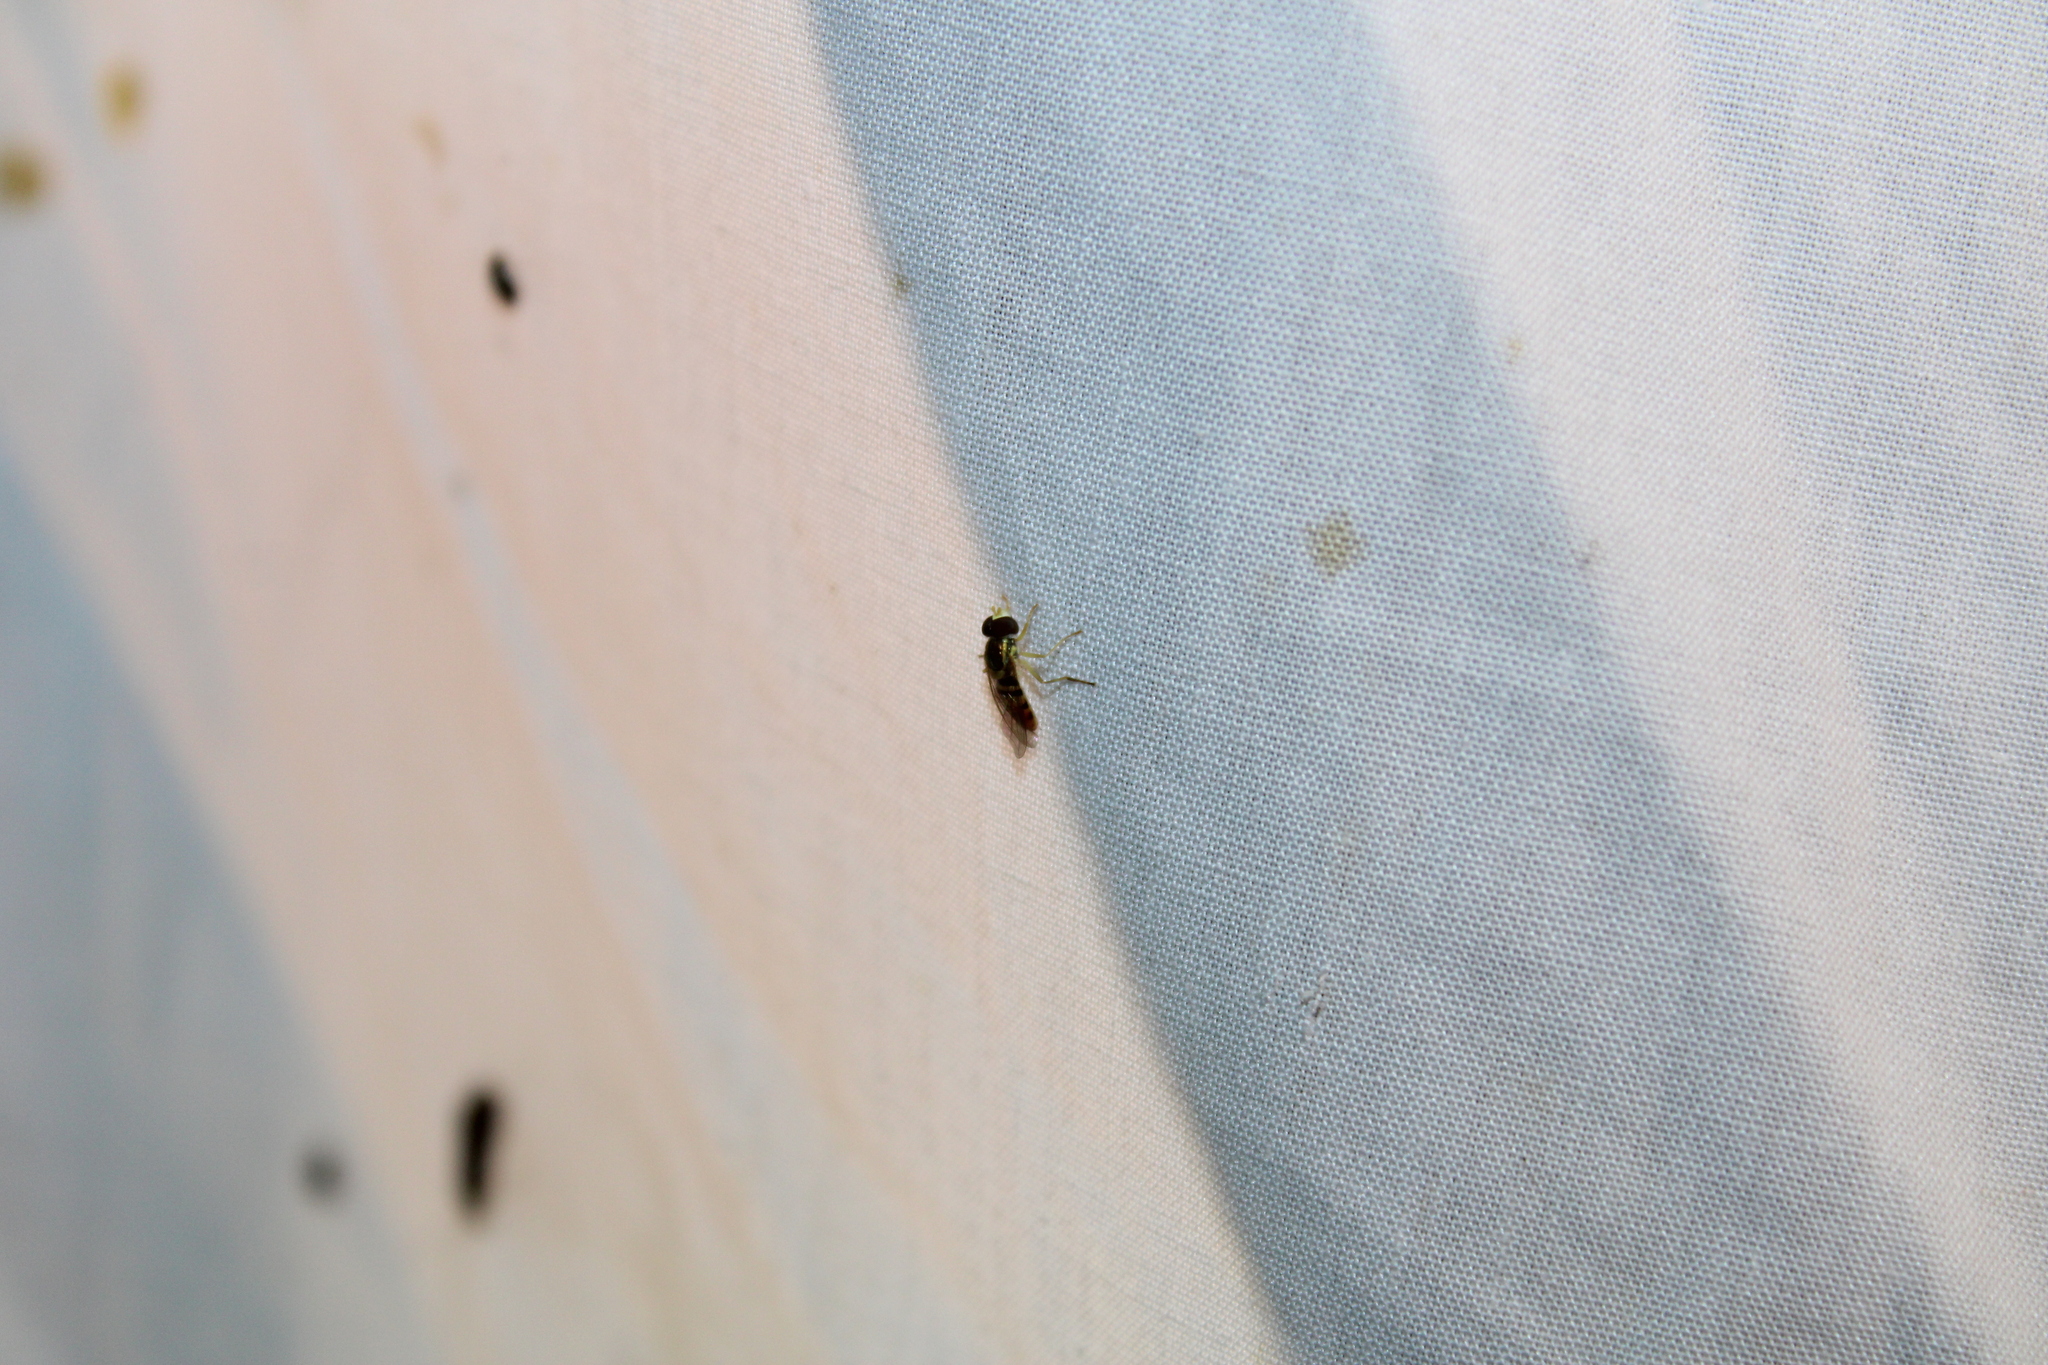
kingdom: Animalia
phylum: Arthropoda
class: Insecta
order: Diptera
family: Syrphidae
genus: Toxomerus
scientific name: Toxomerus marginatus
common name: Syrphid fly
